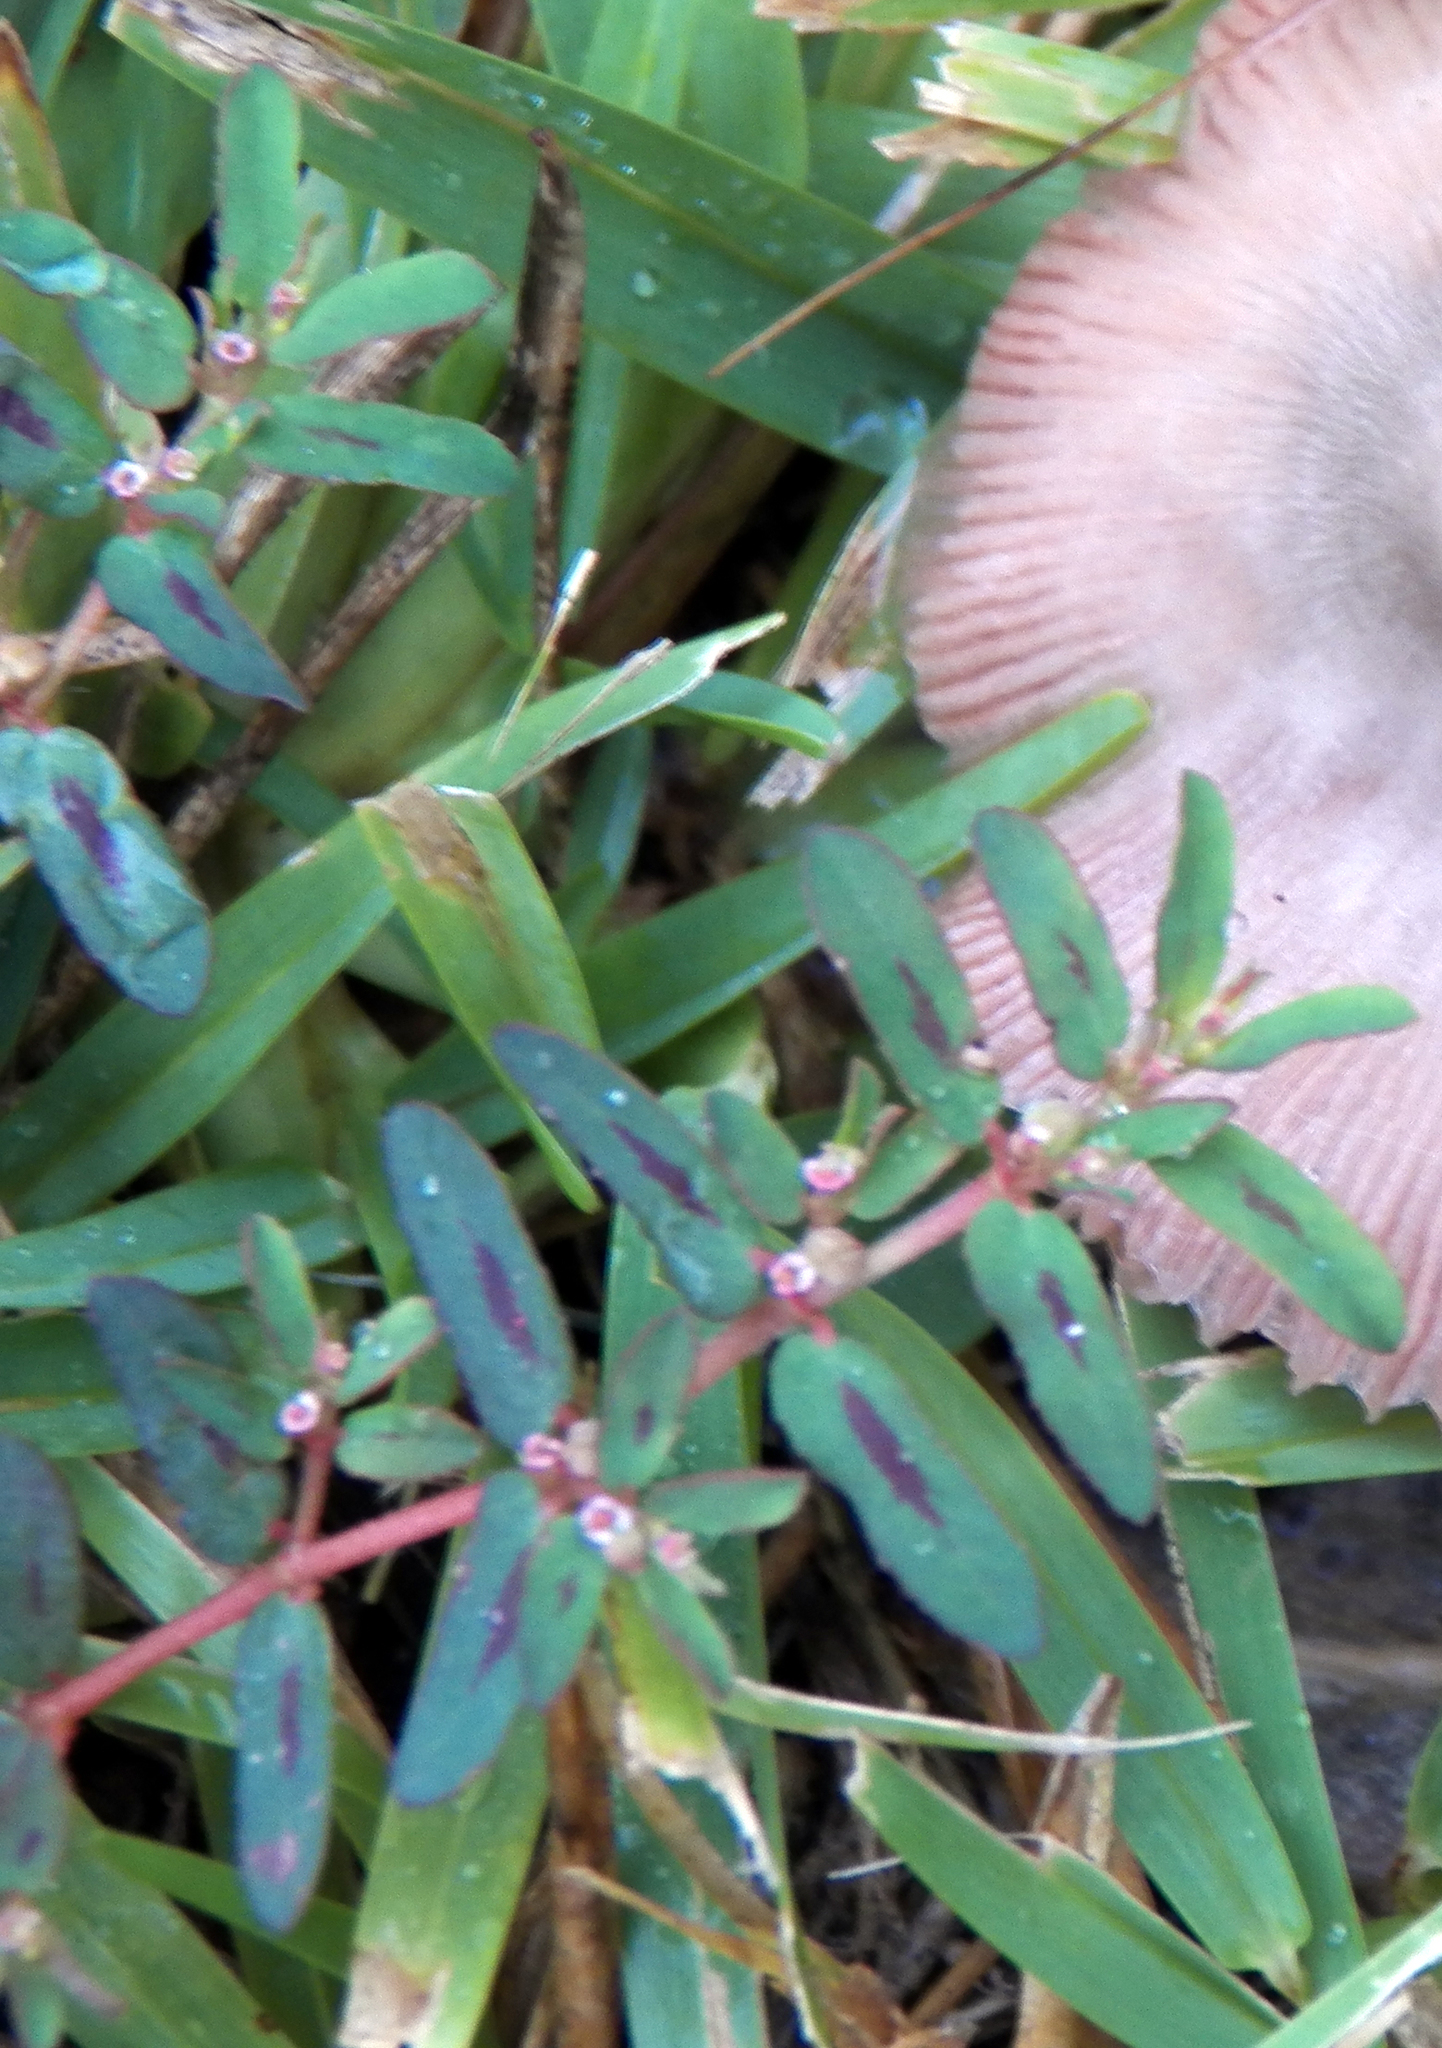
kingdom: Plantae
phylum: Tracheophyta
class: Magnoliopsida
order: Malpighiales
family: Euphorbiaceae
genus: Euphorbia
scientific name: Euphorbia maculata
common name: Spotted spurge
